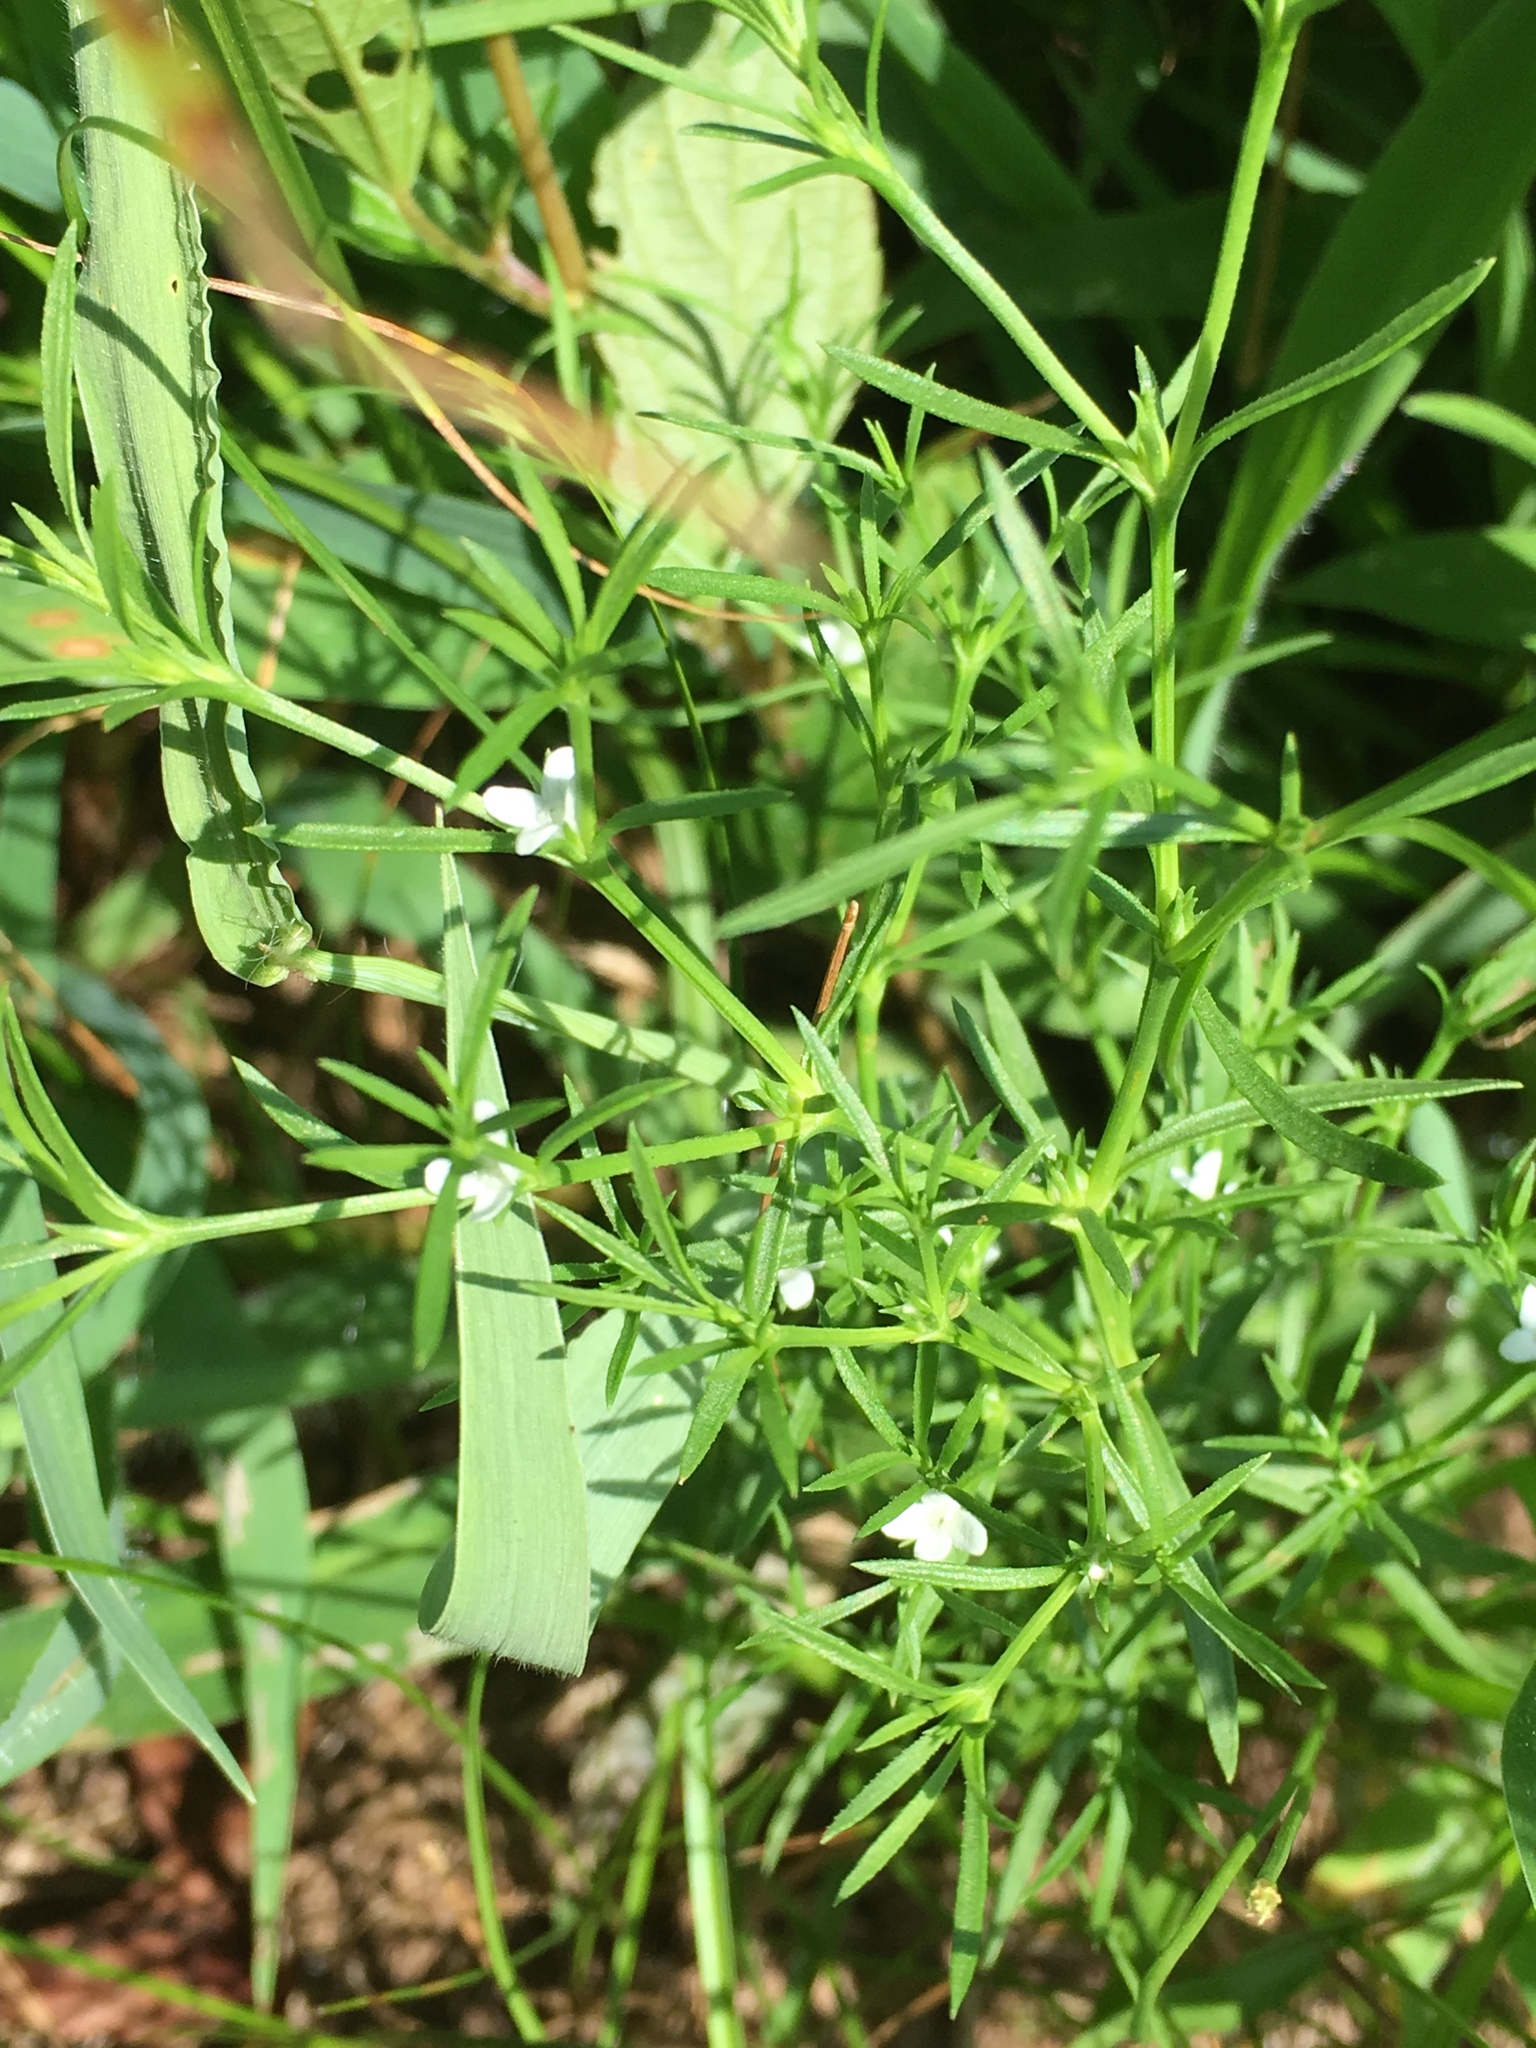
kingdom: Plantae
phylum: Tracheophyta
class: Magnoliopsida
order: Lamiales
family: Tetrachondraceae
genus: Polypremum
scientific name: Polypremum procumbens
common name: Juniper-leaf
